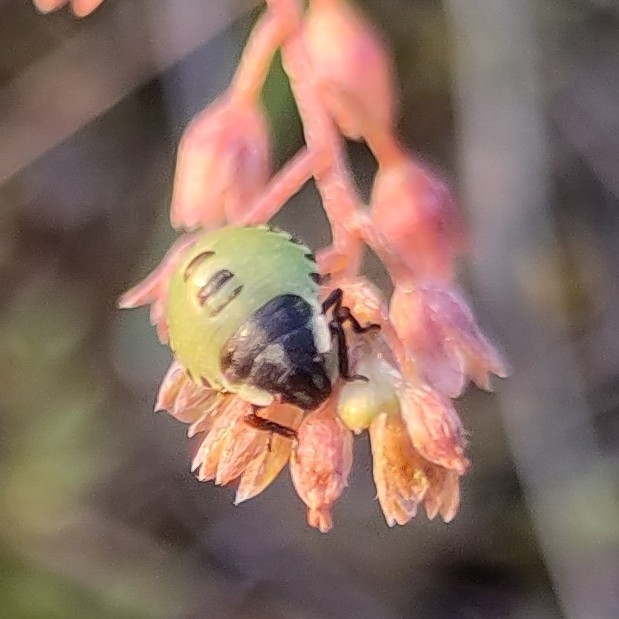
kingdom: Animalia
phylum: Arthropoda
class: Insecta
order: Hemiptera
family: Pentatomidae
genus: Palomena
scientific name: Palomena prasina
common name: Green shieldbug
